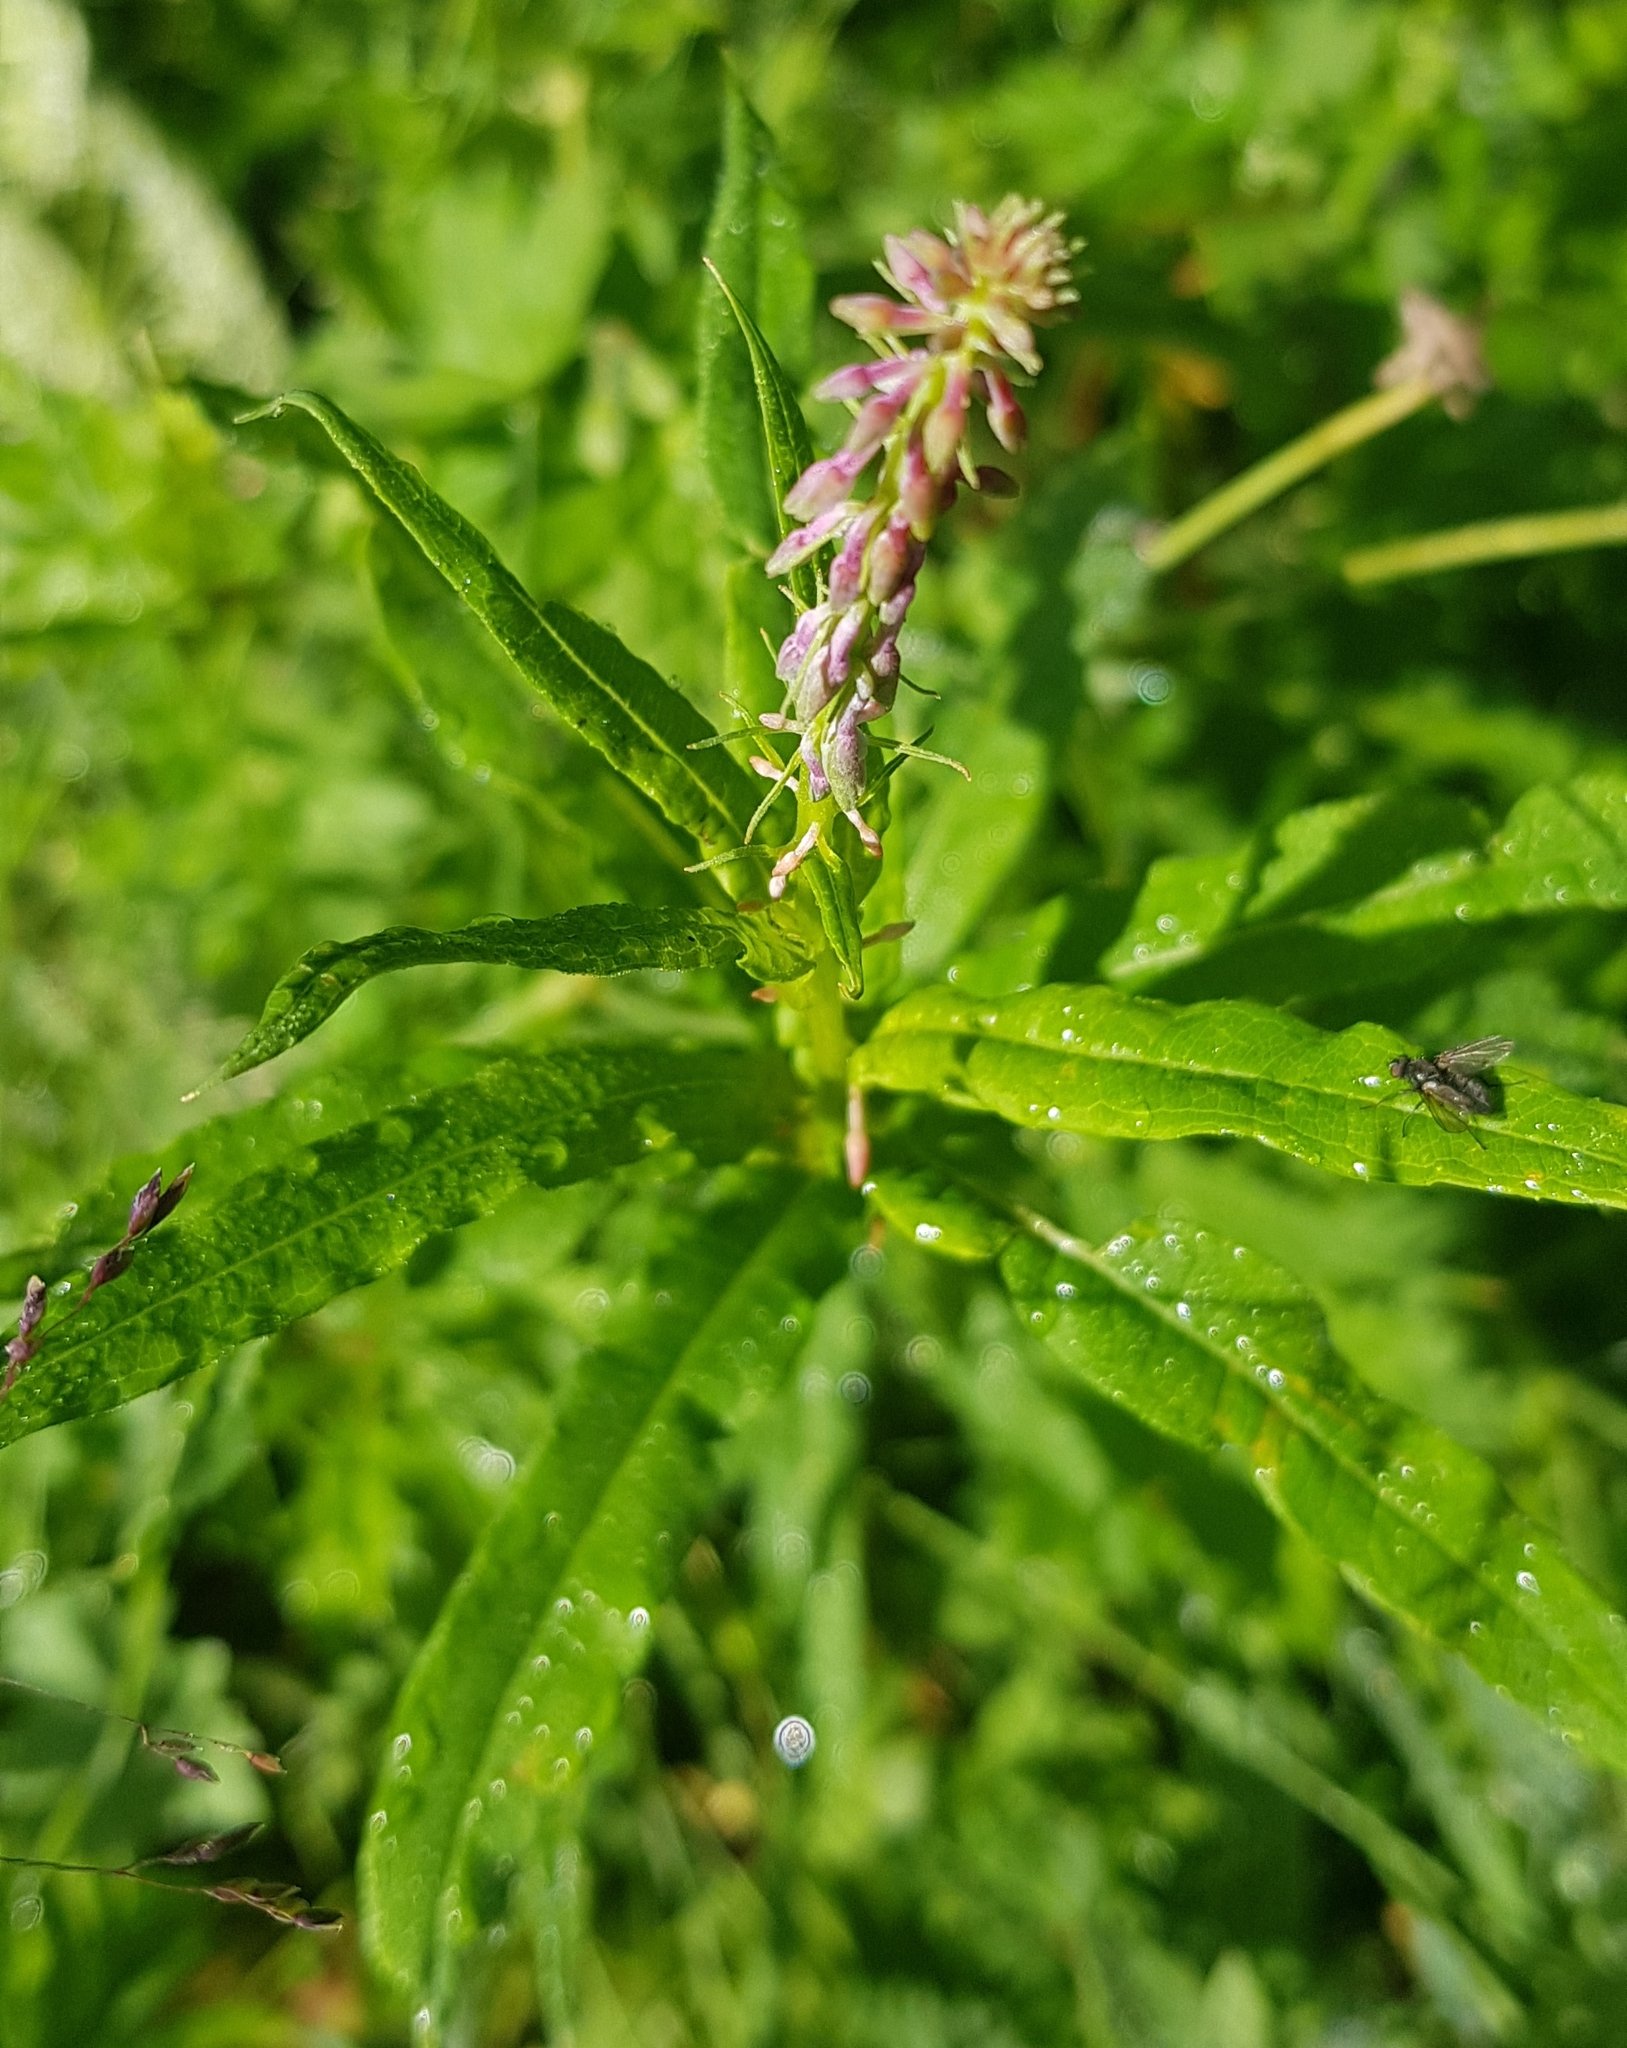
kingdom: Plantae
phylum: Tracheophyta
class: Magnoliopsida
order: Myrtales
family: Onagraceae
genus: Chamaenerion
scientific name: Chamaenerion angustifolium
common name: Fireweed
